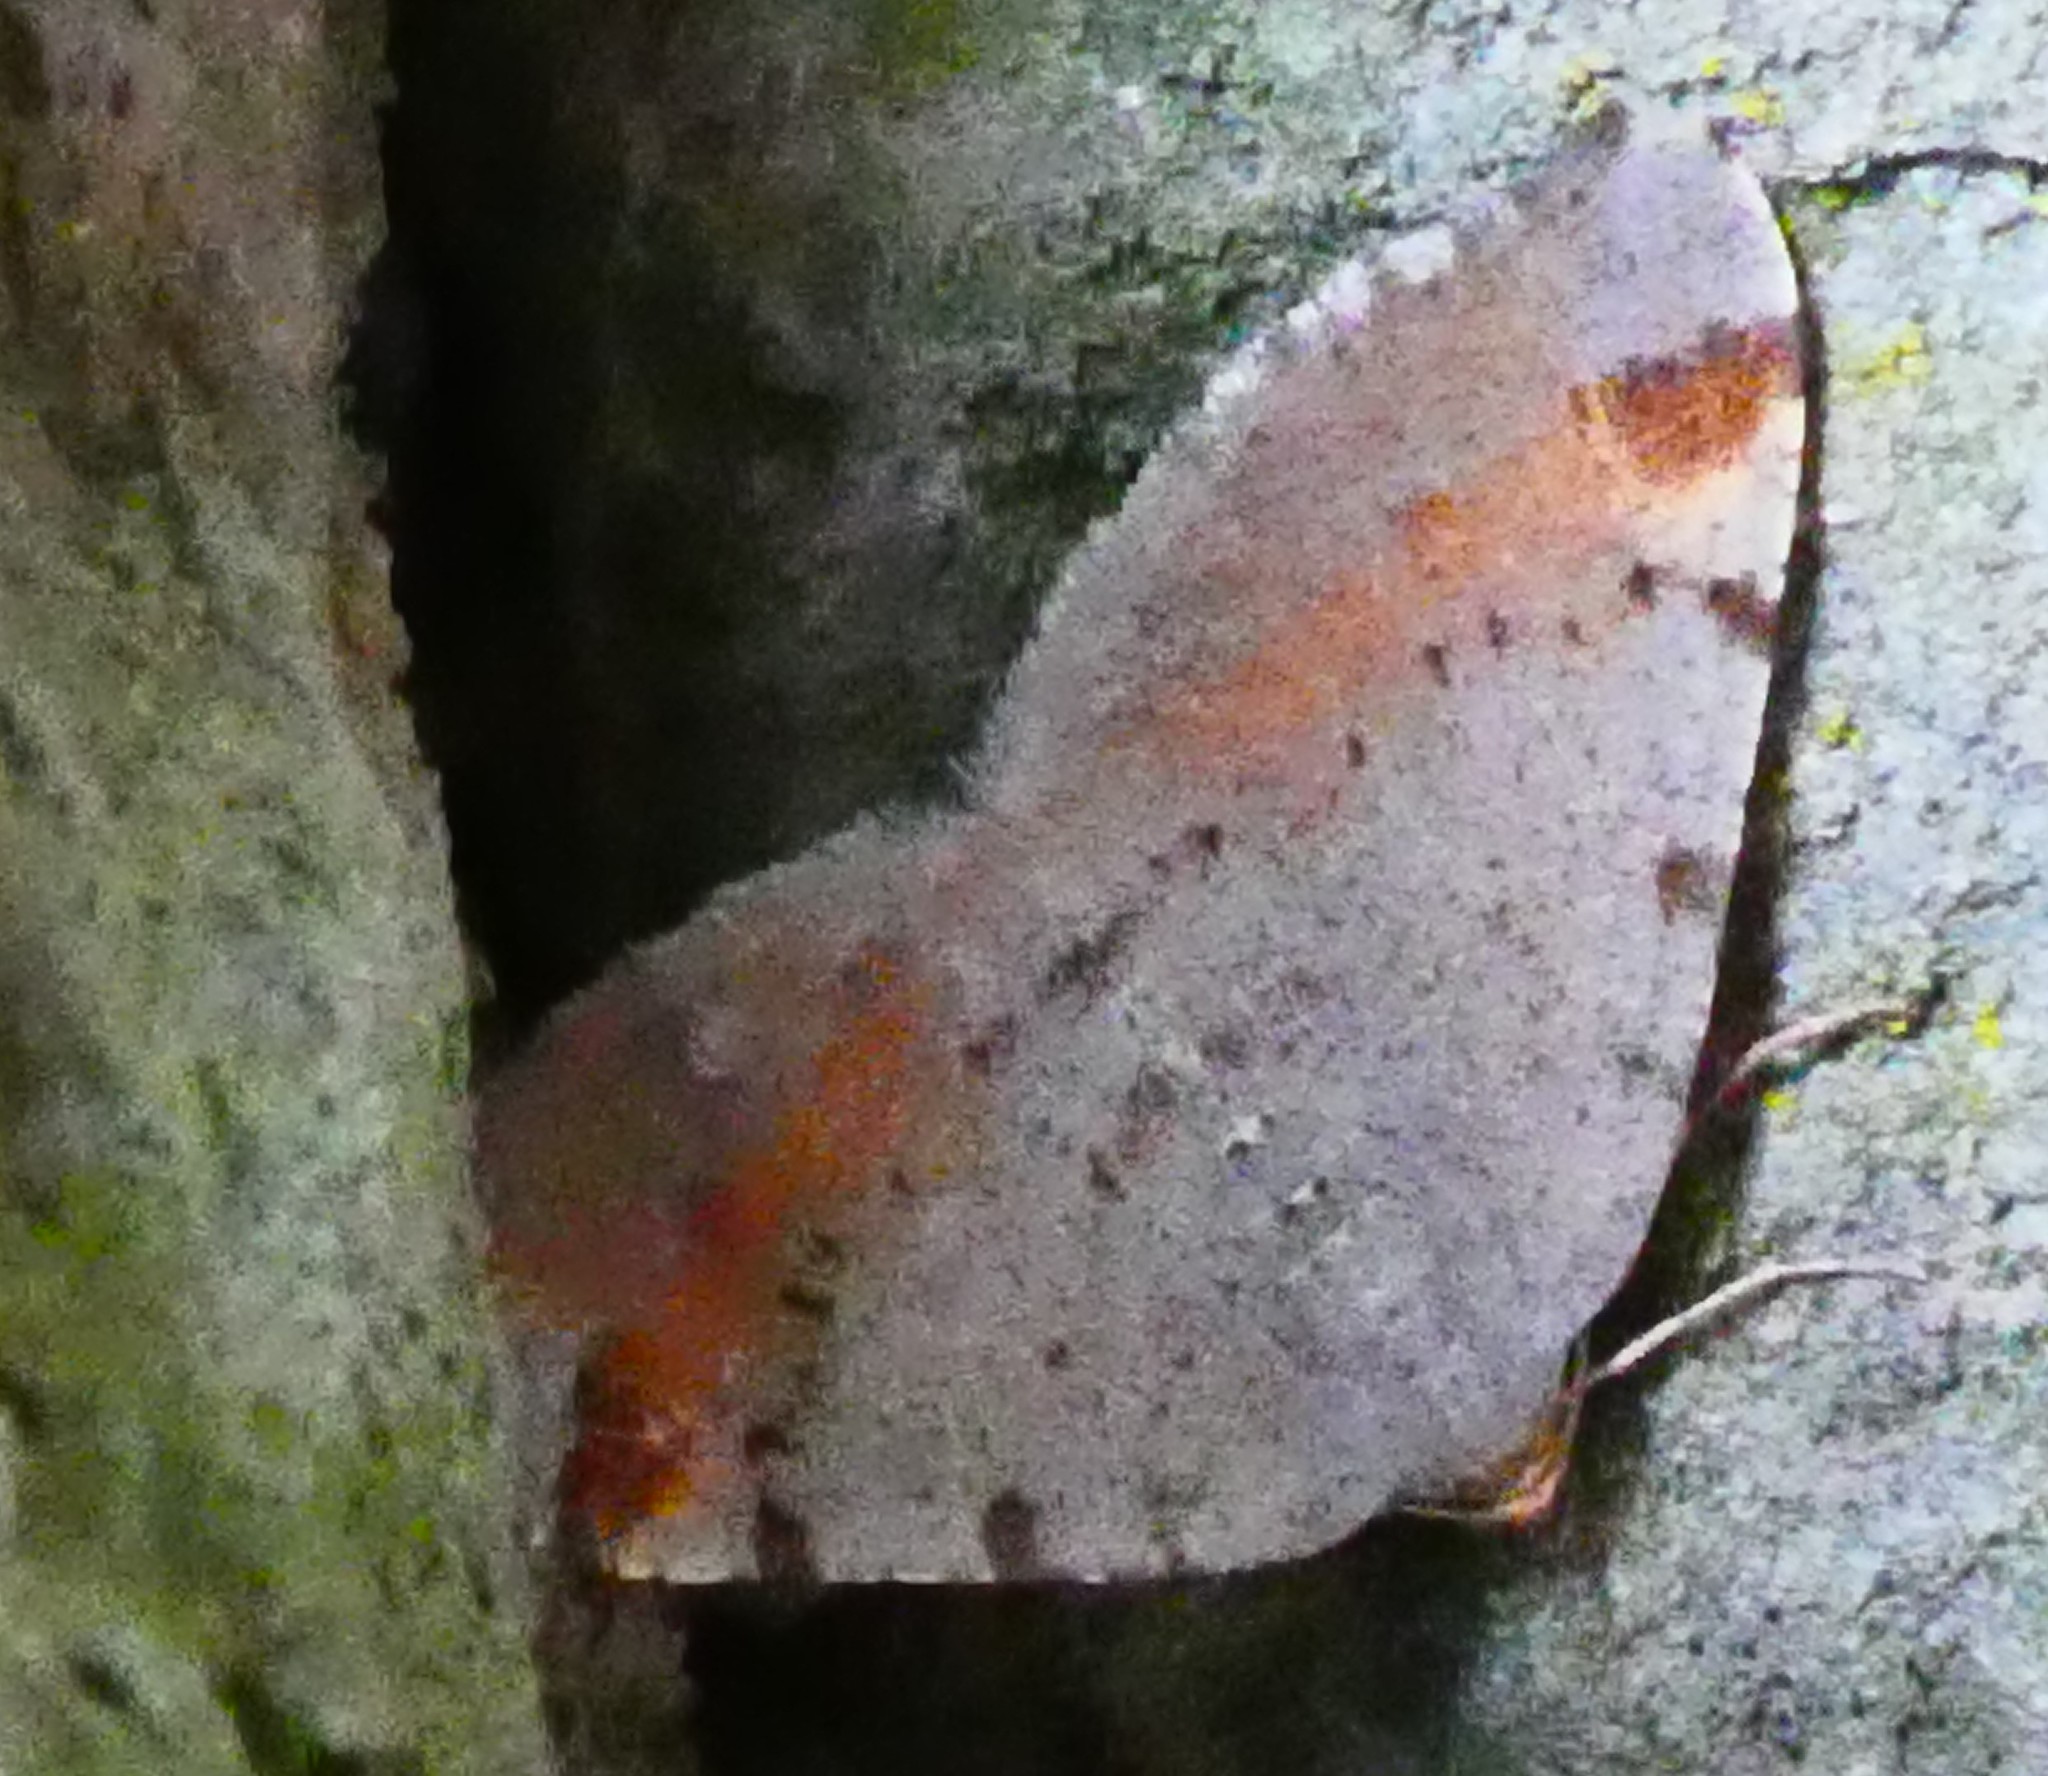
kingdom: Animalia
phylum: Arthropoda
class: Insecta
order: Lepidoptera
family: Geometridae
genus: Macaria
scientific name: Macaria liturata
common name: Tawny-barred angle
